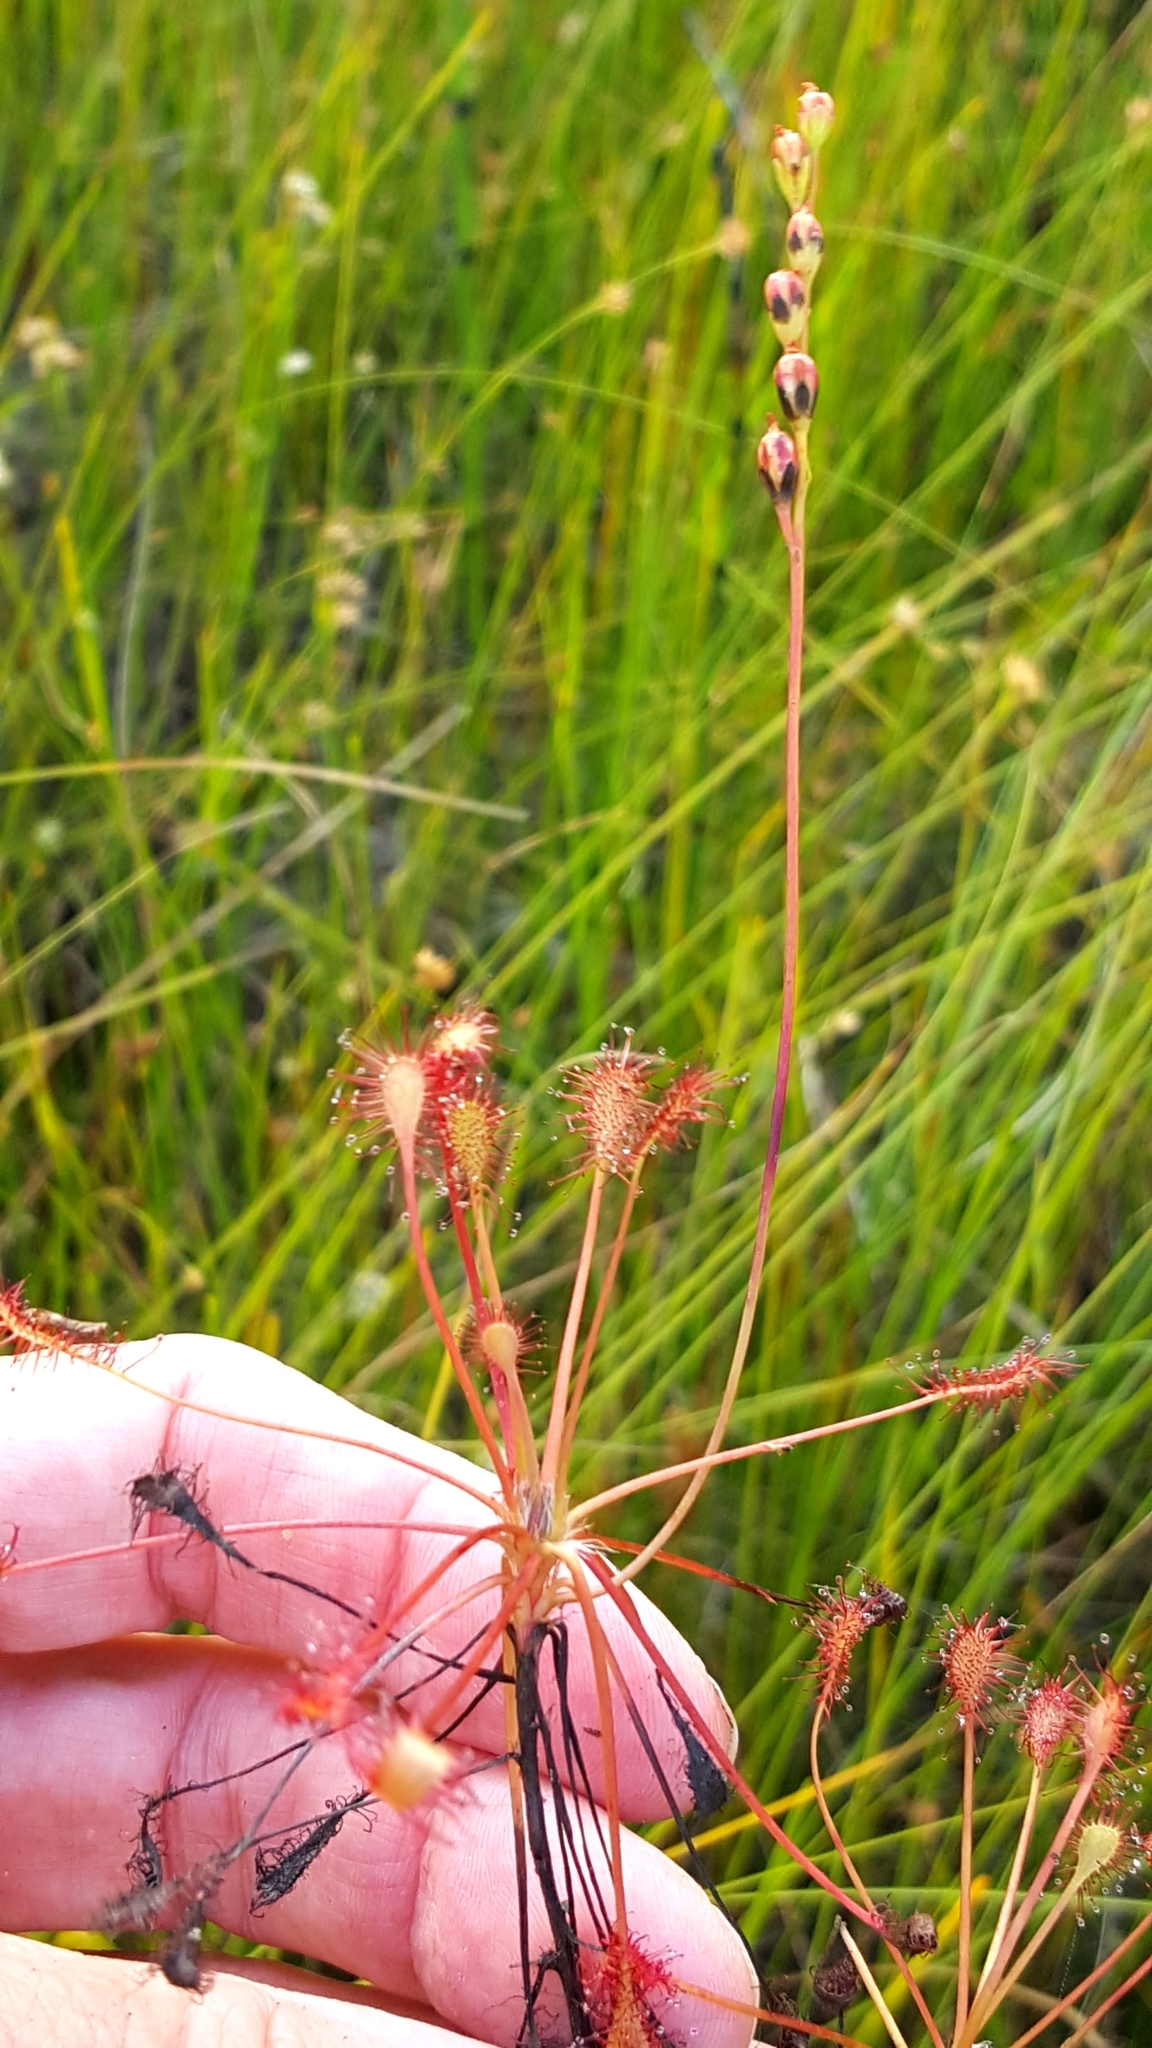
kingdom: Plantae
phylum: Tracheophyta
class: Magnoliopsida
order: Caryophyllales
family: Droseraceae
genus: Drosera
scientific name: Drosera intermedia
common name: Oblong-leaved sundew
